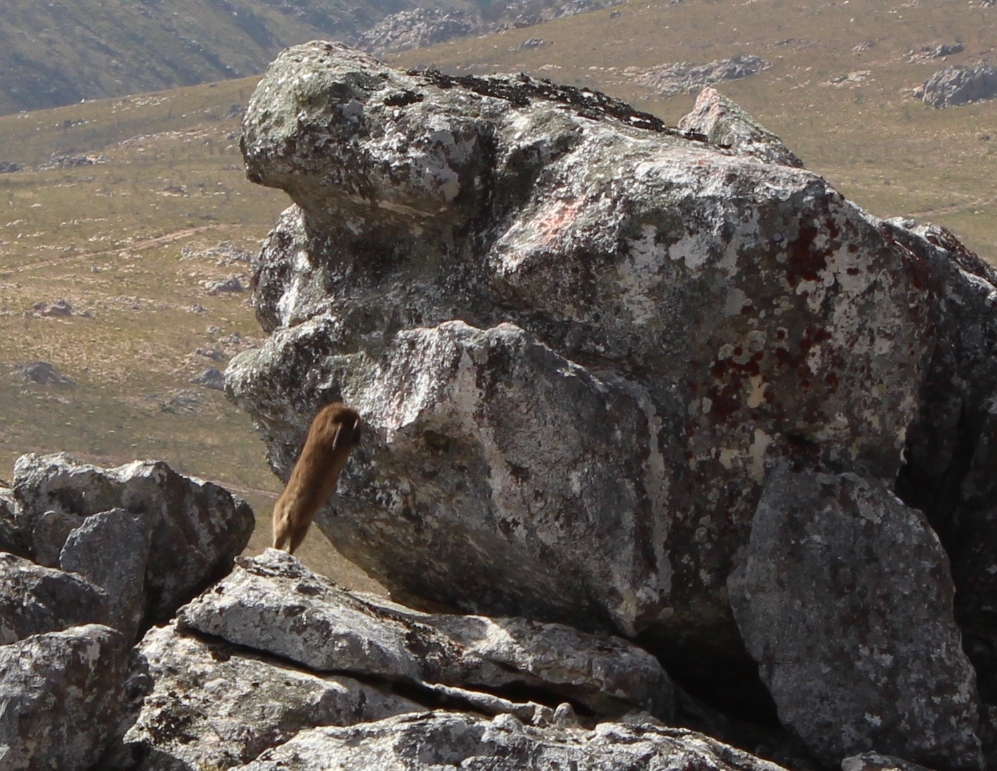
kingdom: Animalia
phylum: Chordata
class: Mammalia
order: Hyracoidea
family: Procaviidae
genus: Procavia
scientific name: Procavia capensis
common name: Rock hyrax
